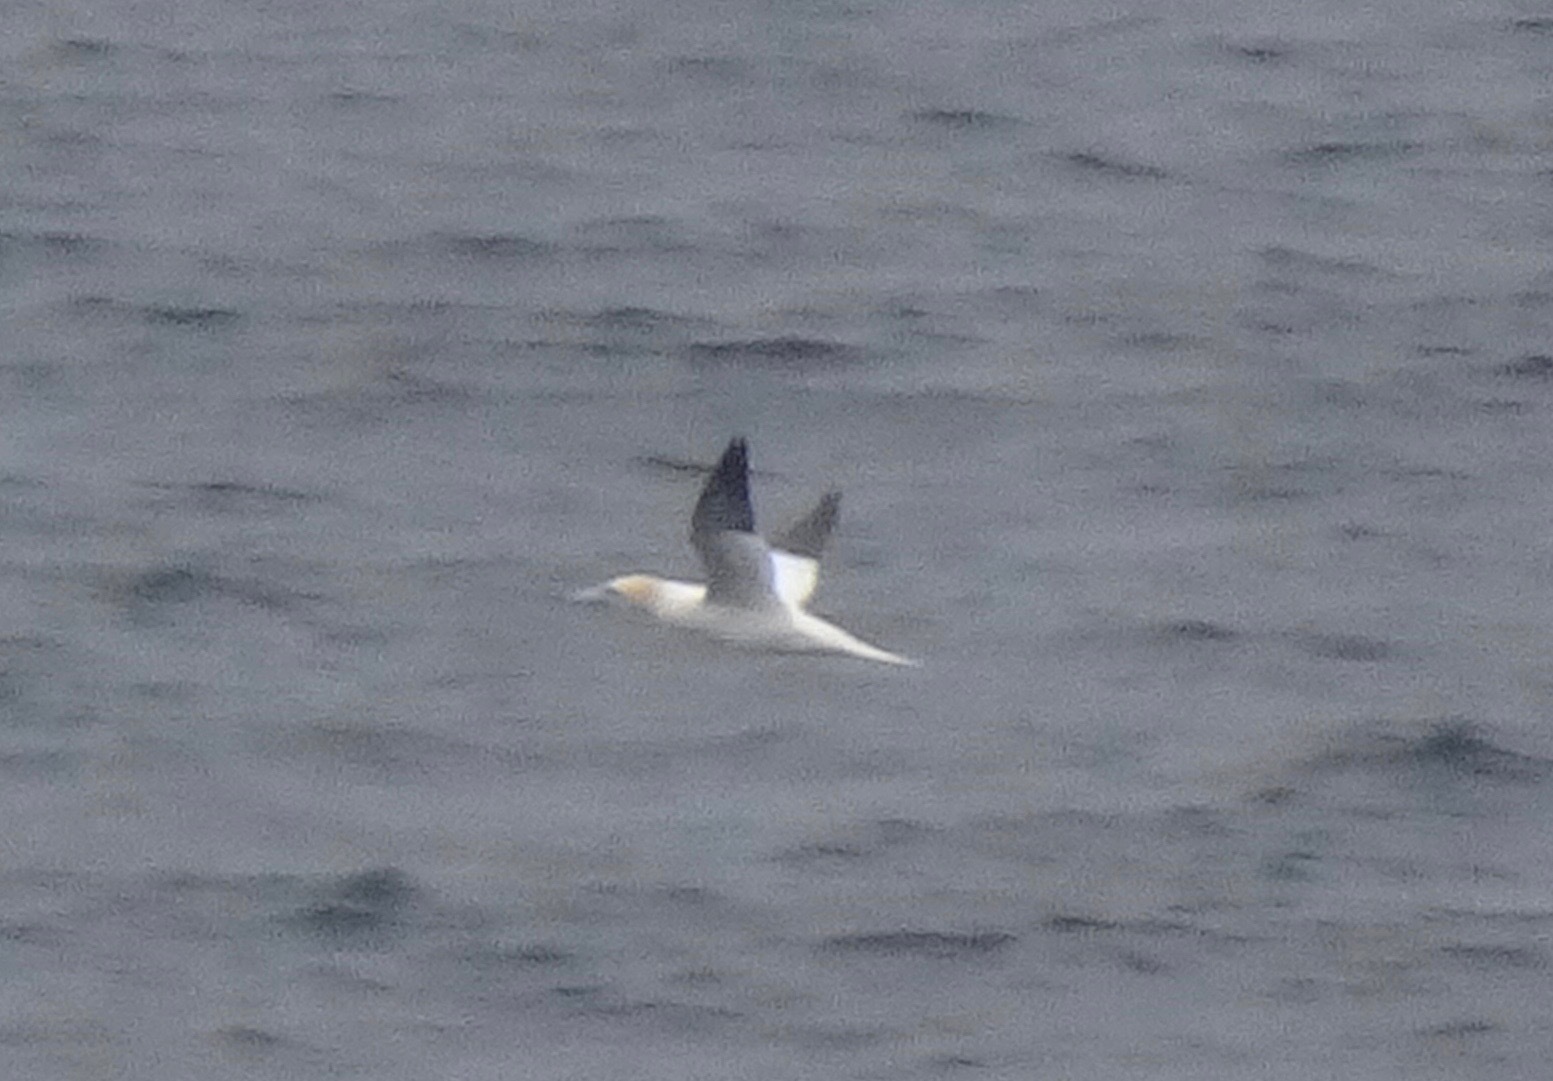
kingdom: Animalia
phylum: Chordata
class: Aves
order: Suliformes
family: Sulidae
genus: Morus
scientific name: Morus bassanus
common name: Northern gannet
